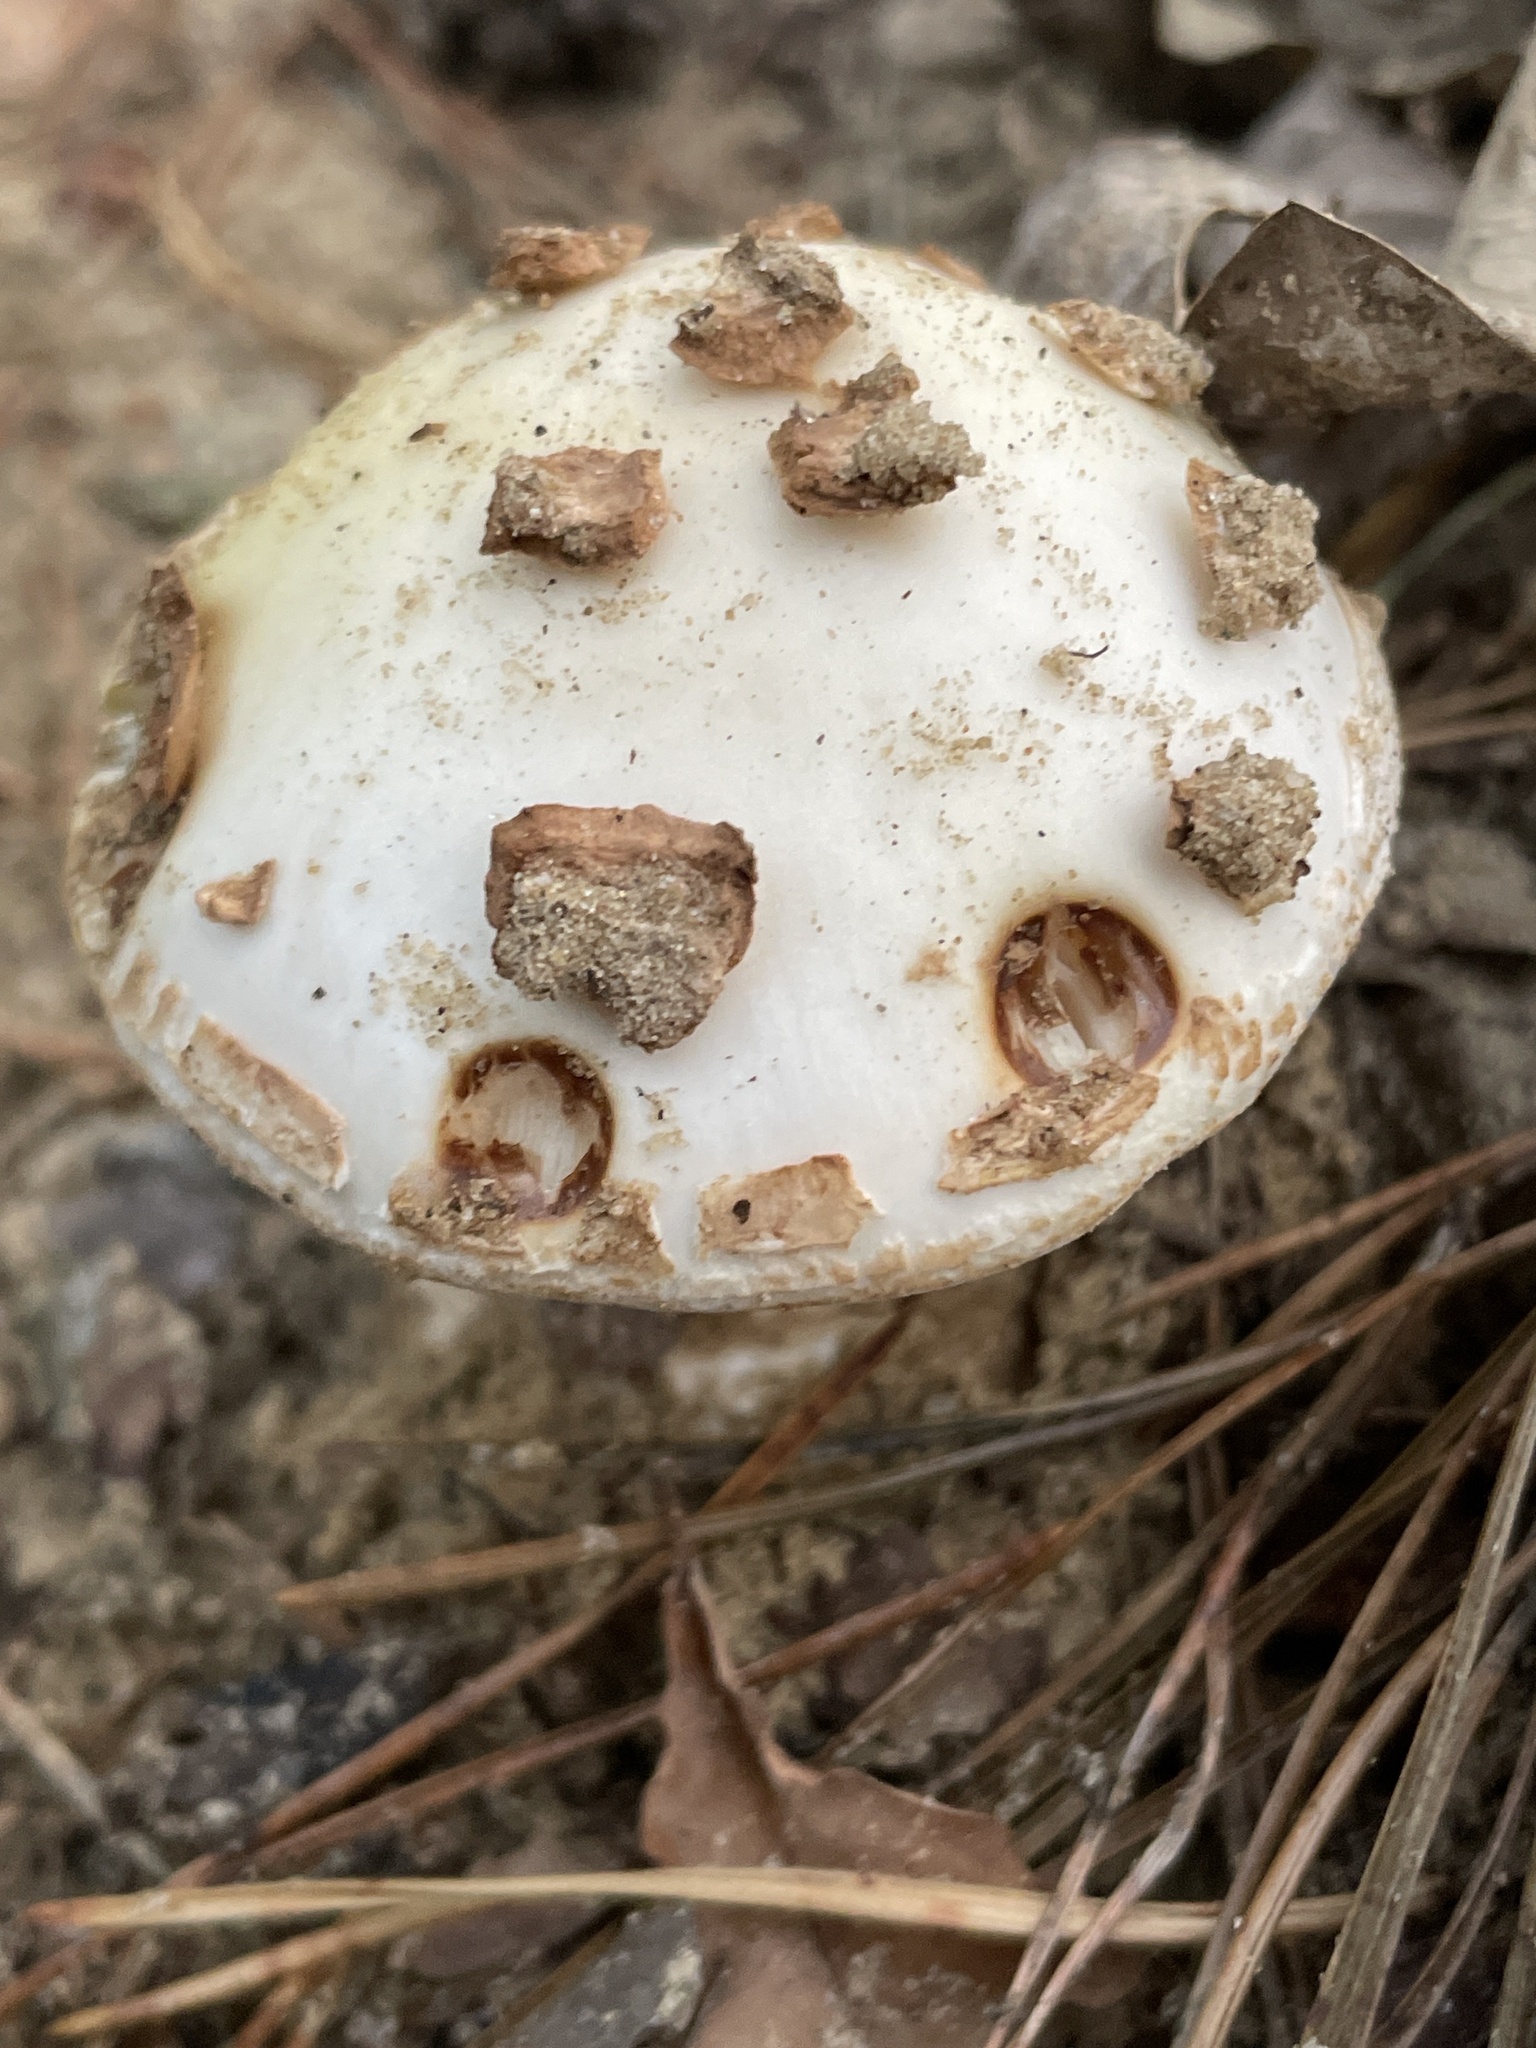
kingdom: Fungi
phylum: Basidiomycota
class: Agaricomycetes
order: Agaricales
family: Amanitaceae
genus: Amanita
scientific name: Amanita citrina
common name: False death-cap
